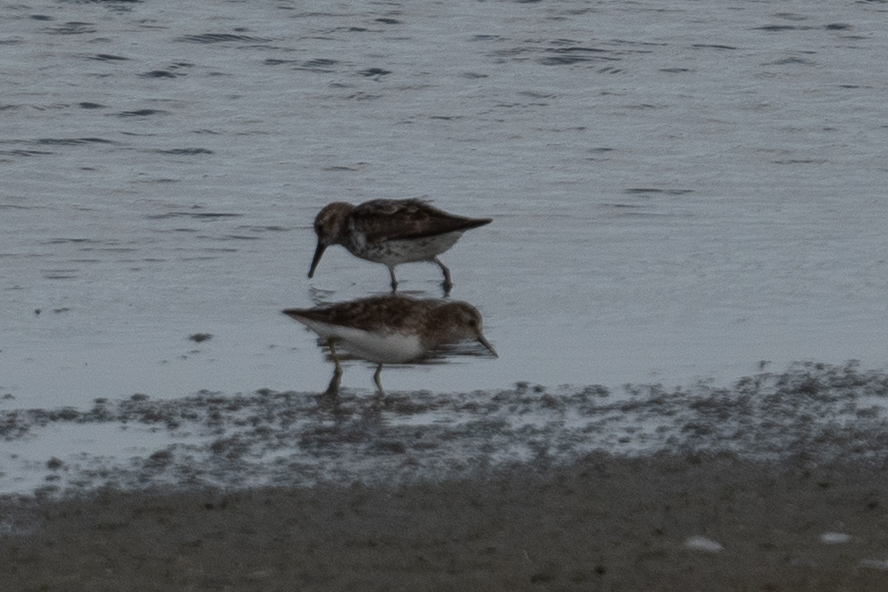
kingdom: Animalia
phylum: Chordata
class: Aves
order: Charadriiformes
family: Scolopacidae
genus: Calidris
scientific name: Calidris
